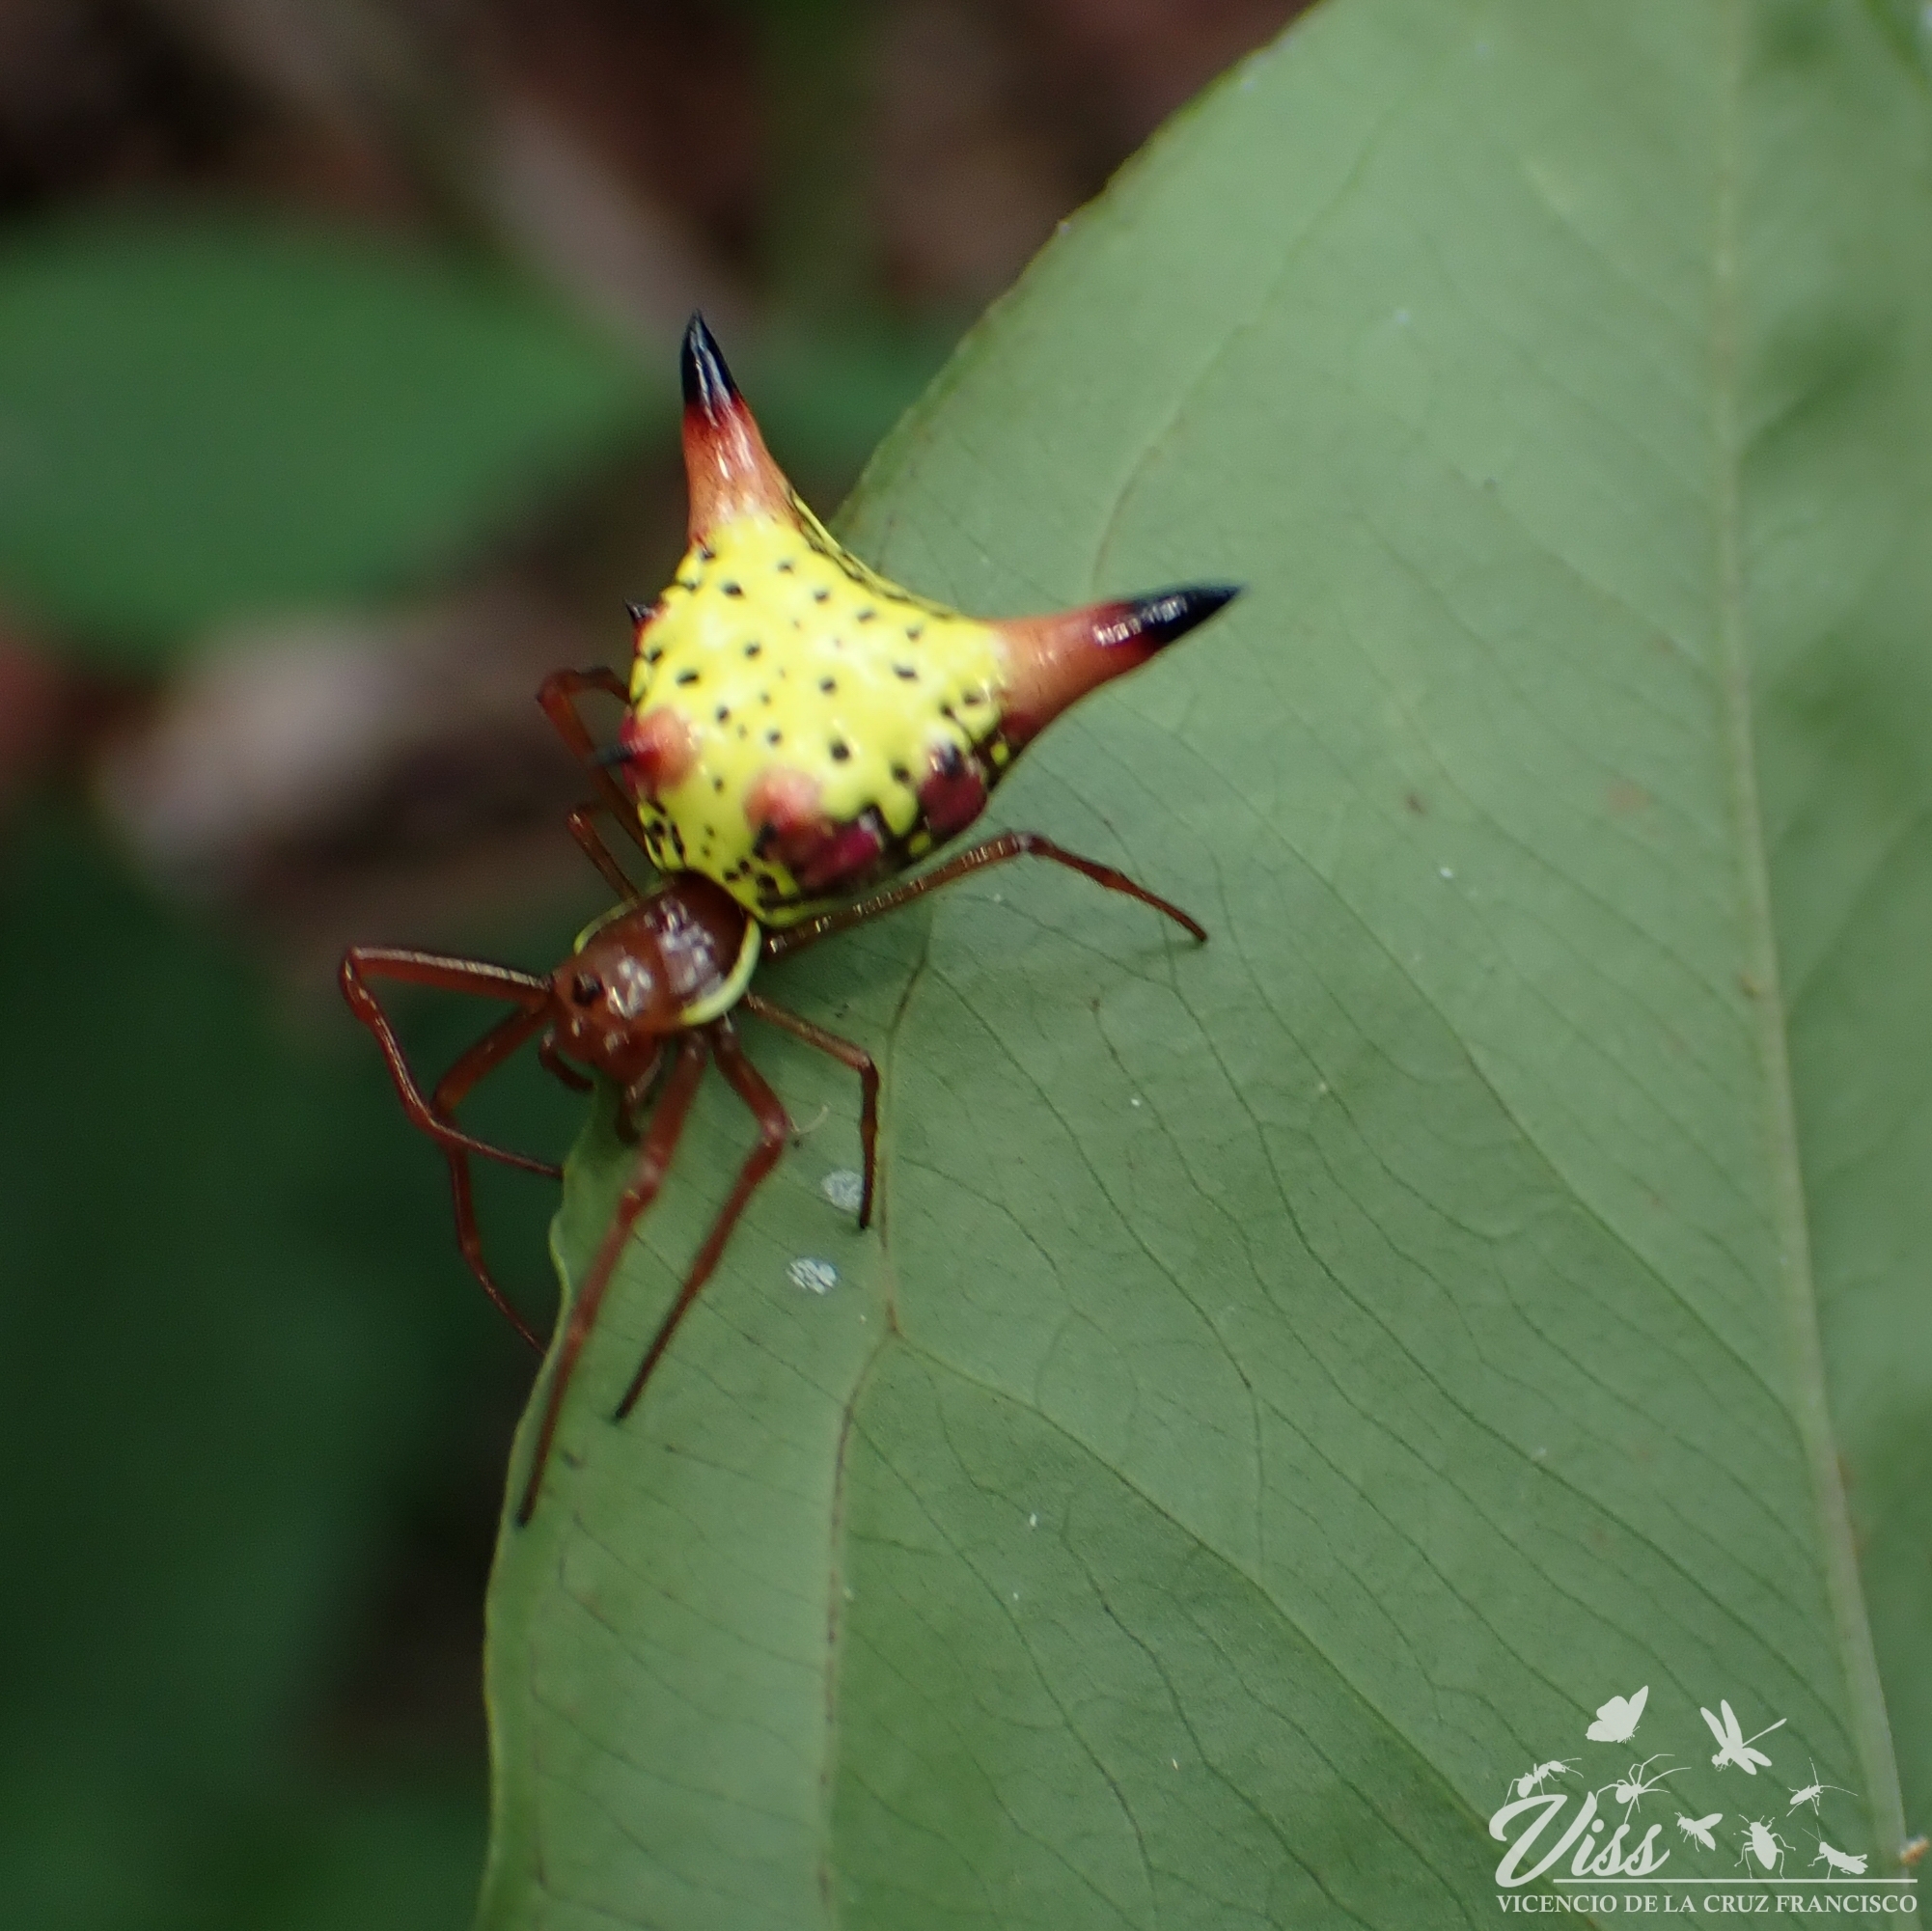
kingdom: Animalia
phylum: Arthropoda
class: Arachnida
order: Araneae
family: Araneidae
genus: Micrathena
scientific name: Micrathena sagittata
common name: Orb weavers
